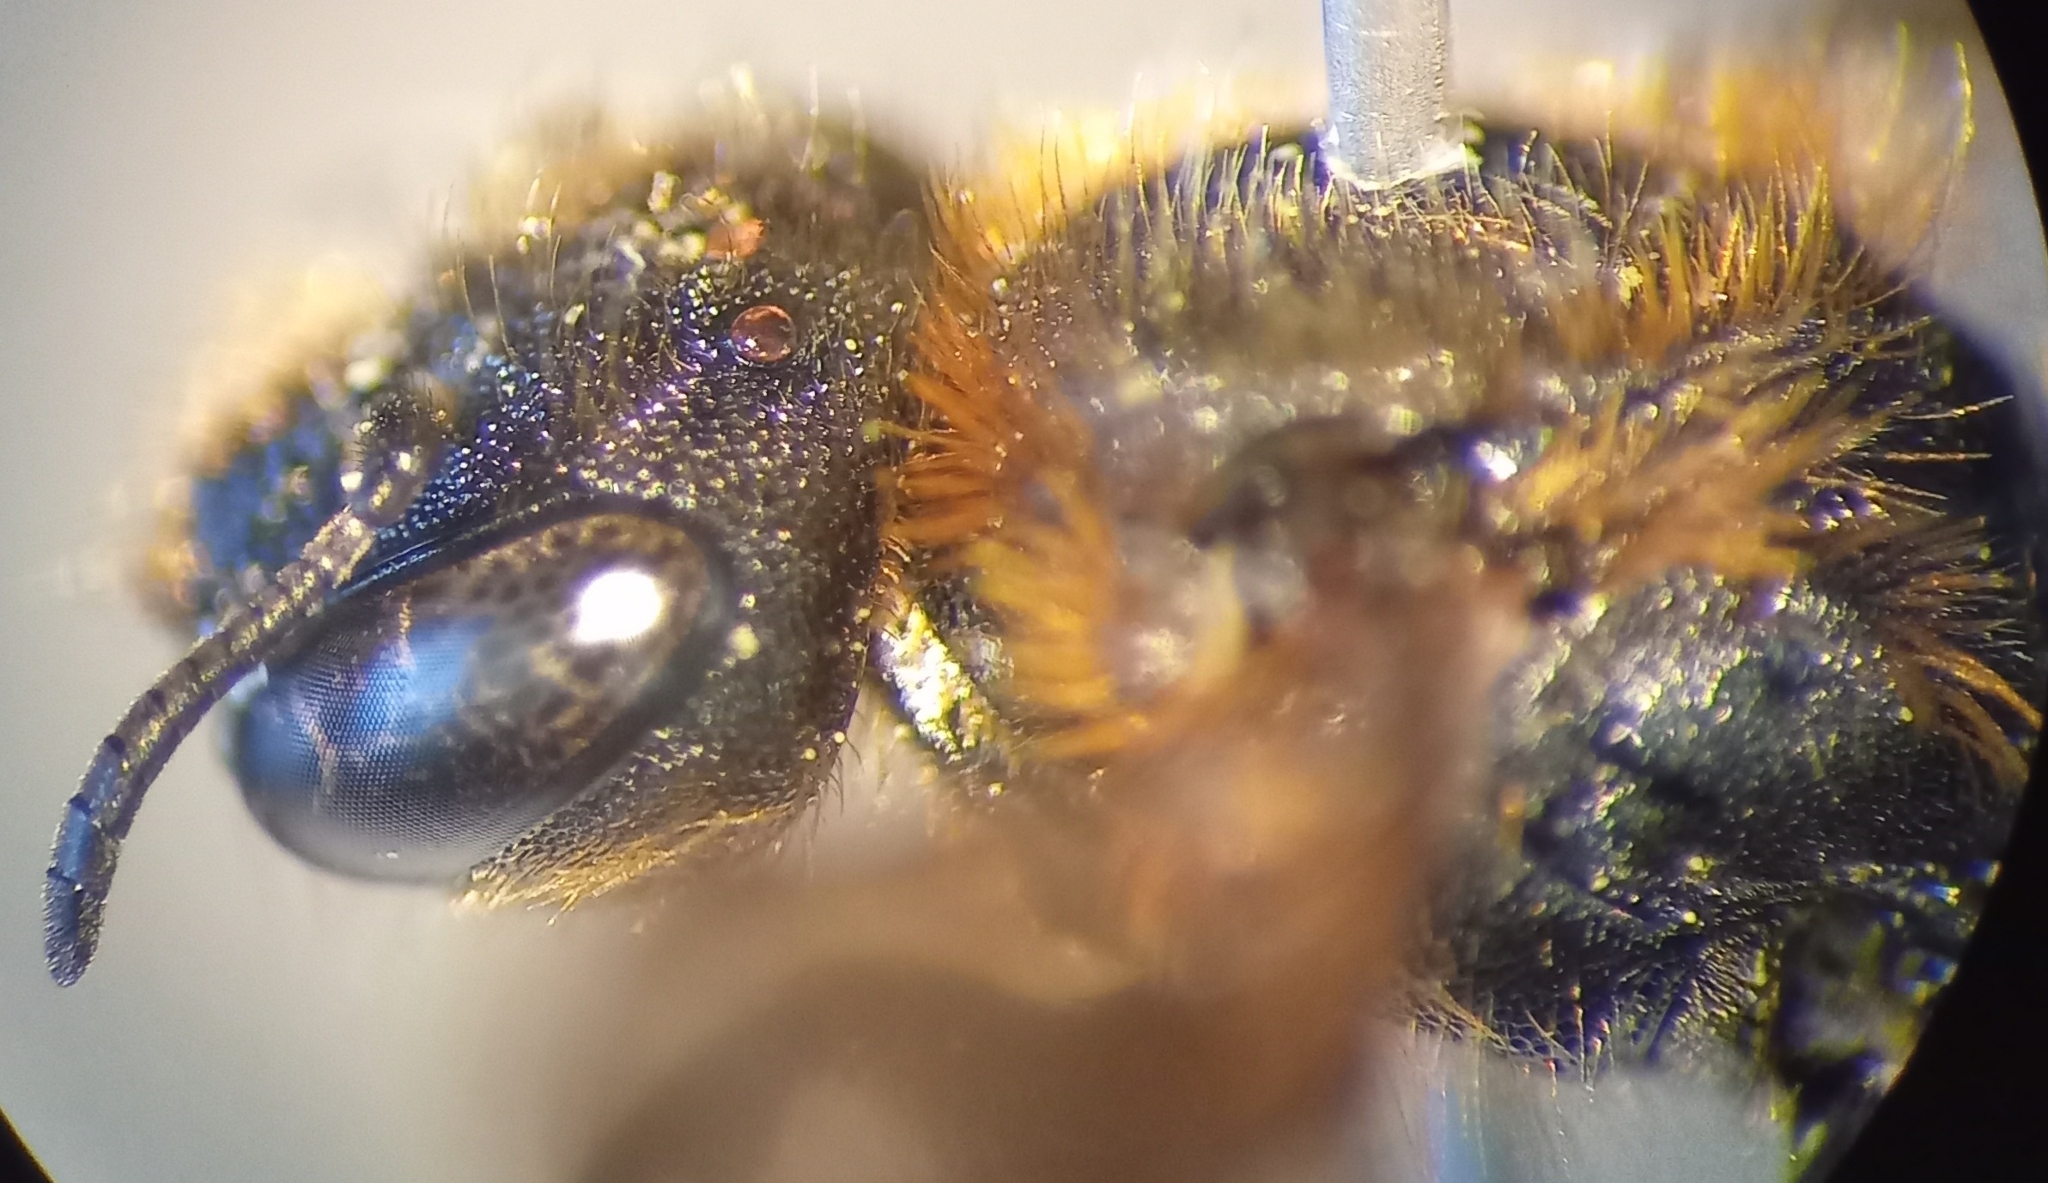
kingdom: Animalia
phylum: Arthropoda
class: Insecta
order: Hymenoptera
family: Megachilidae
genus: Osmia
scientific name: Osmia rufohirta
